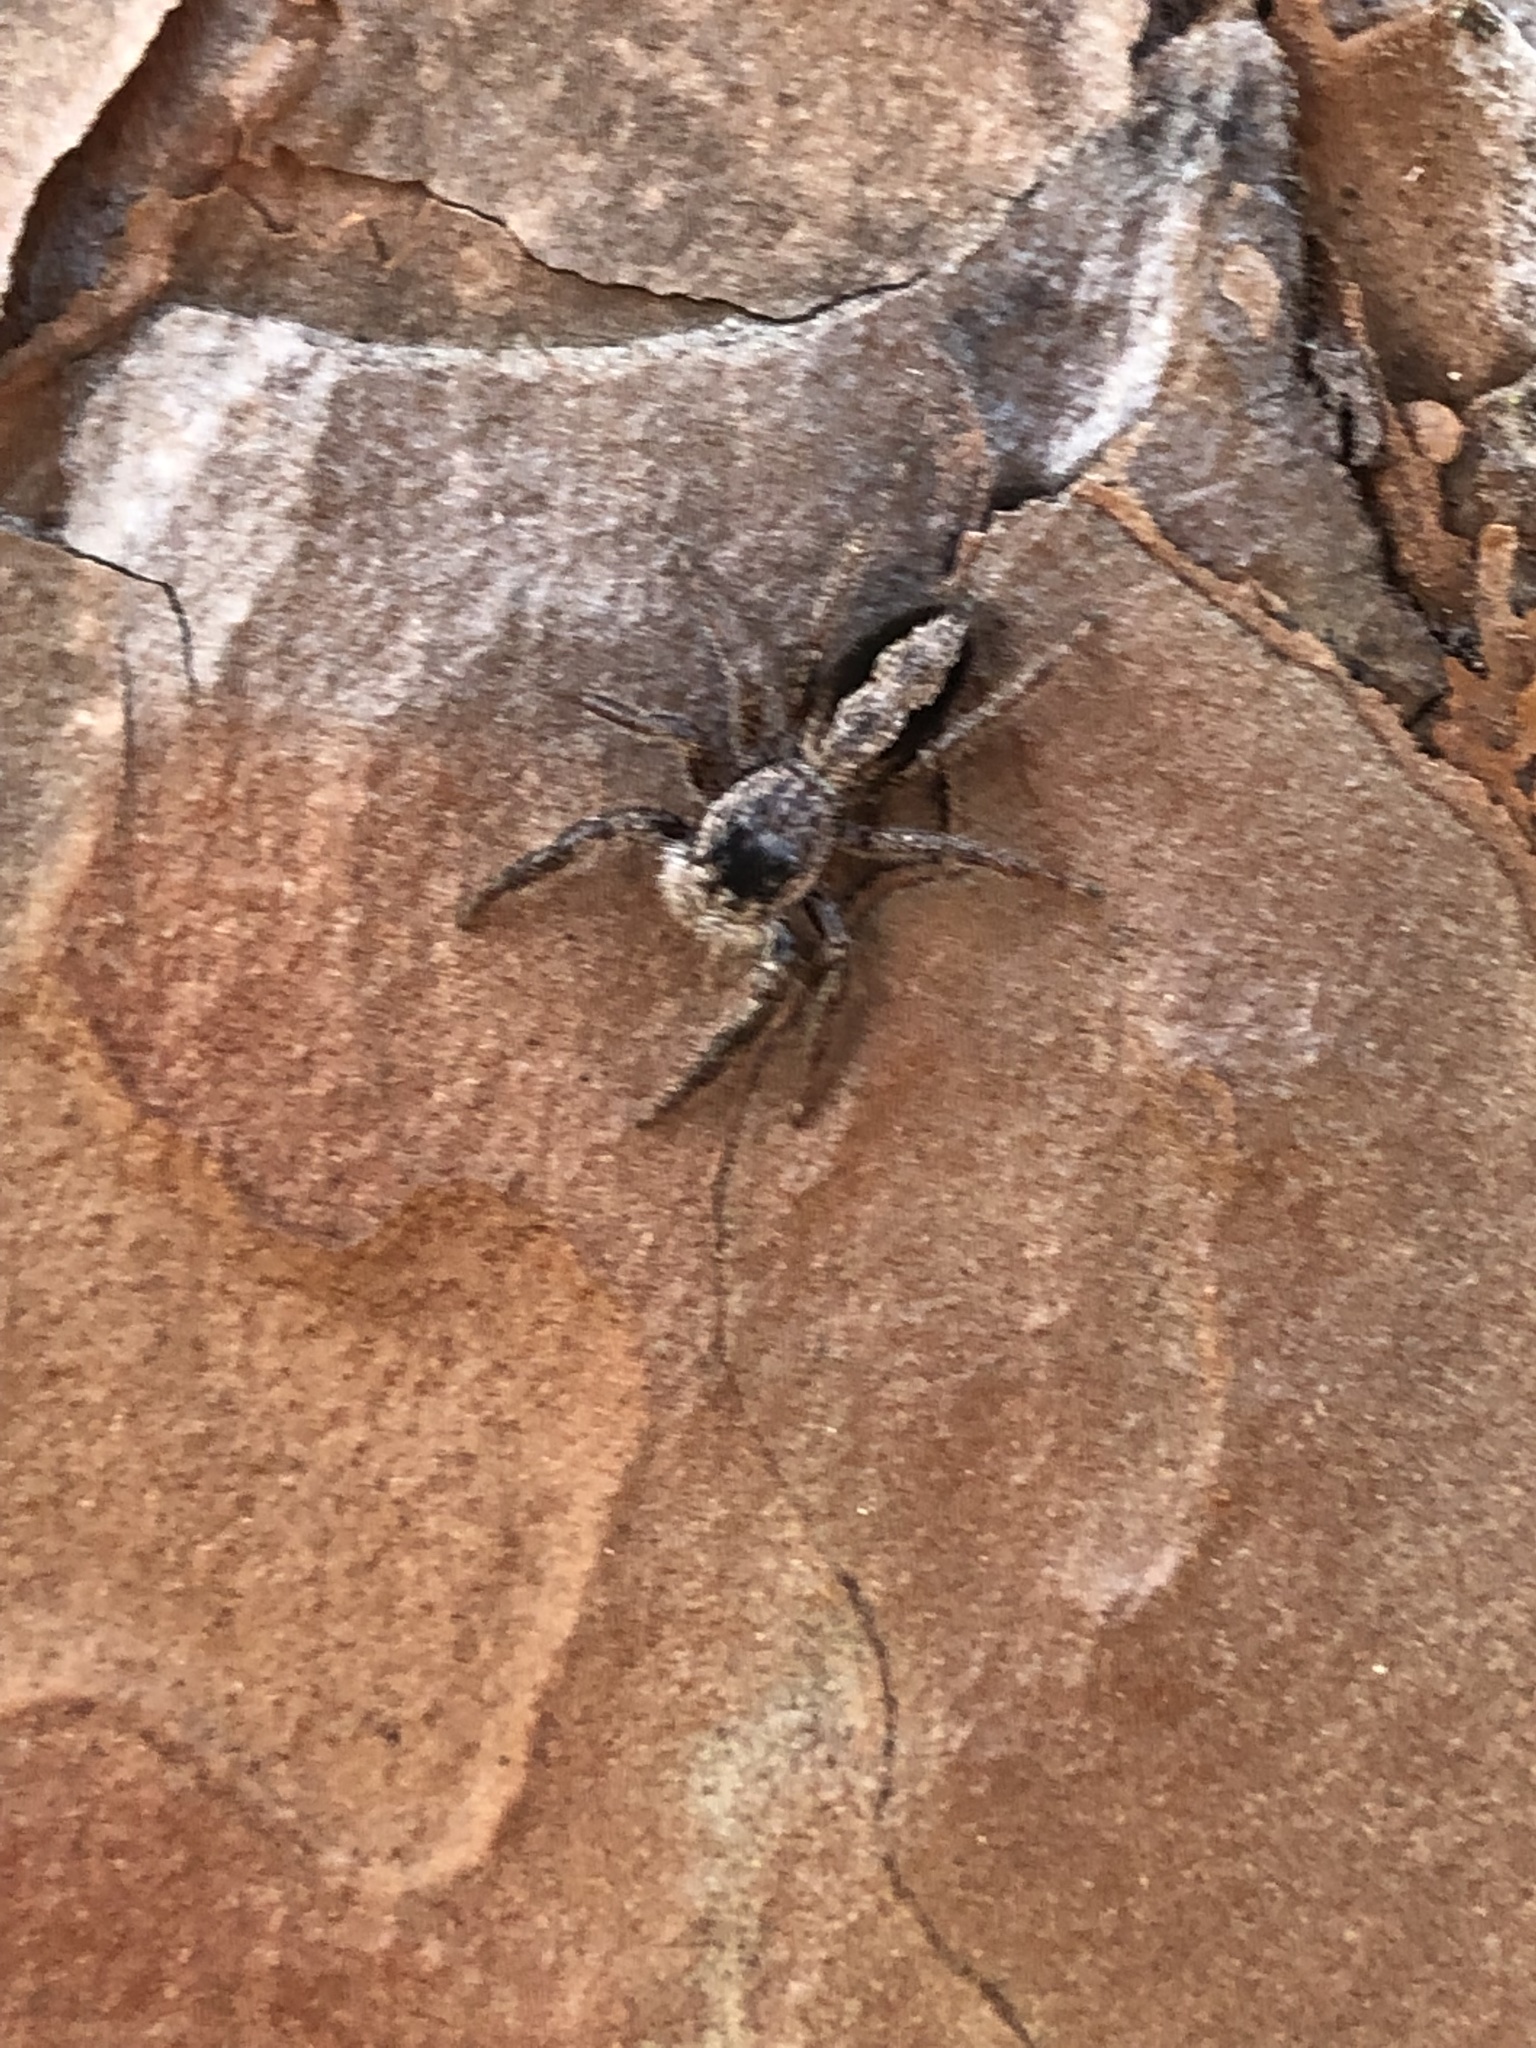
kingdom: Animalia
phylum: Arthropoda
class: Arachnida
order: Araneae
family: Salticidae
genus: Platycryptus
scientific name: Platycryptus undatus
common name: Tan jumping spider
